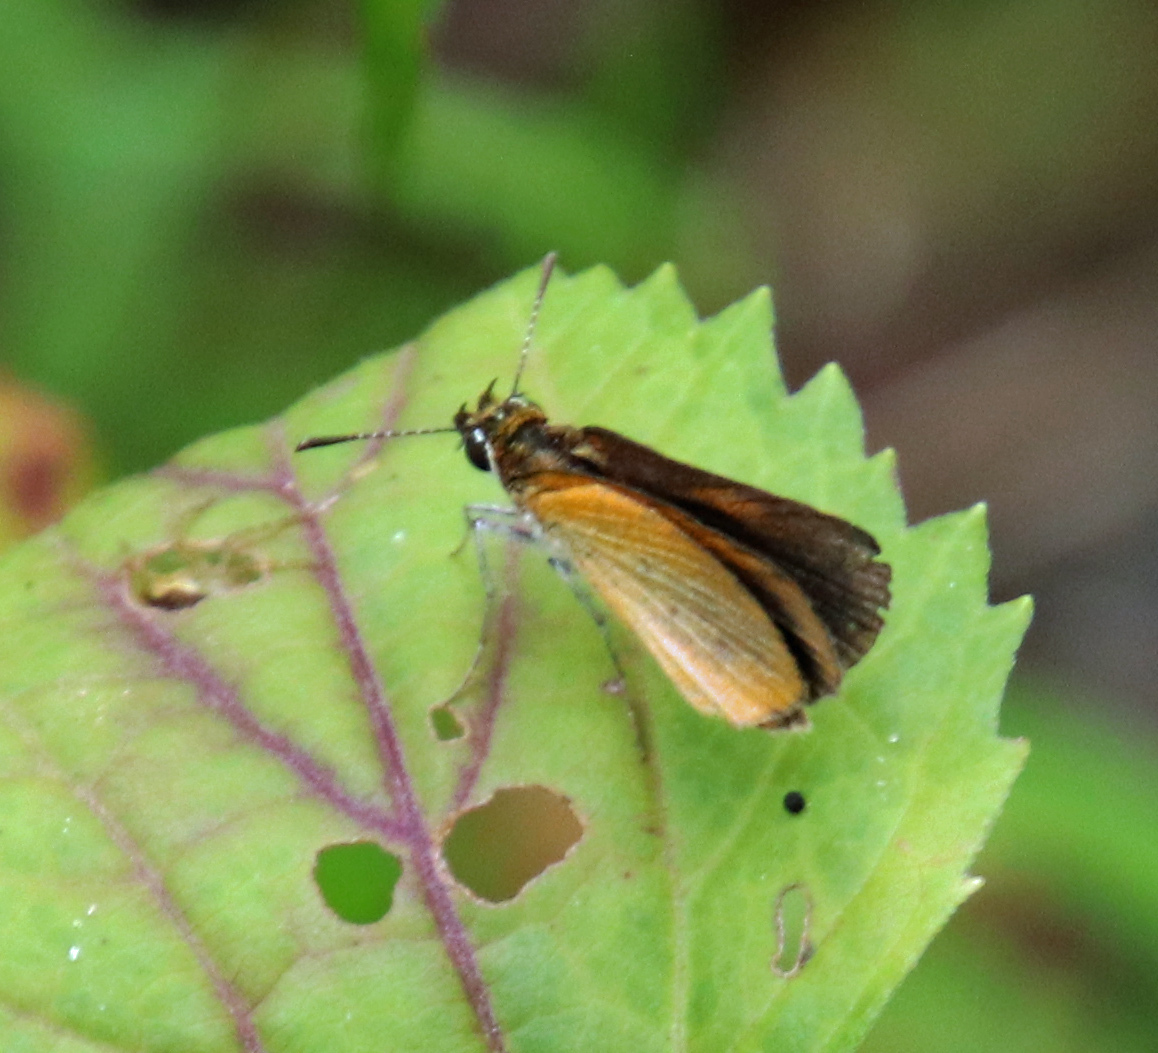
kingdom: Animalia
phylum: Arthropoda
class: Insecta
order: Lepidoptera
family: Hesperiidae
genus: Ancyloxypha
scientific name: Ancyloxypha numitor
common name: Least skipper
